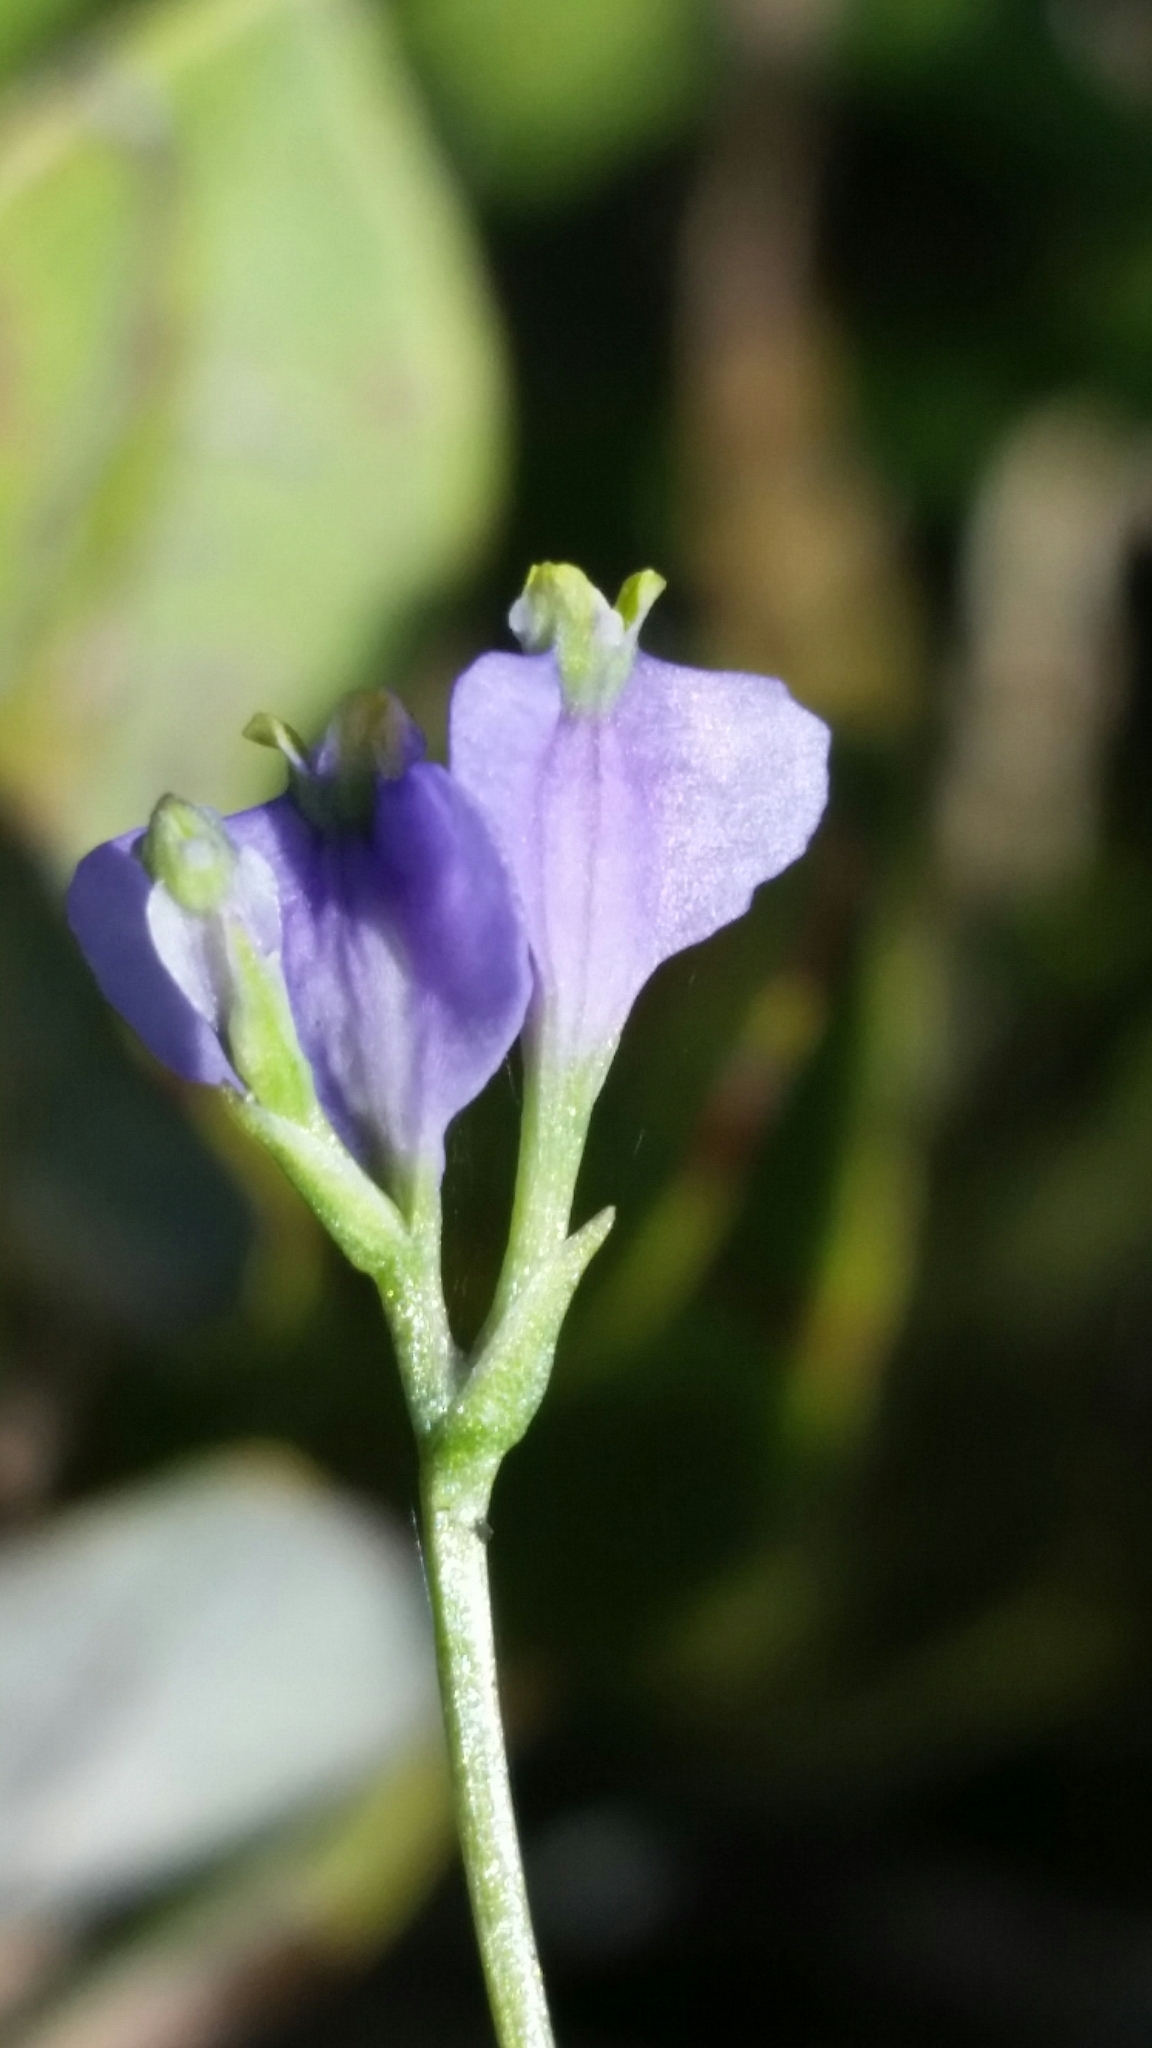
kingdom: Plantae
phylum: Tracheophyta
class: Liliopsida
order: Dioscoreales
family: Burmanniaceae
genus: Burmannia
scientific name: Burmannia biflora
